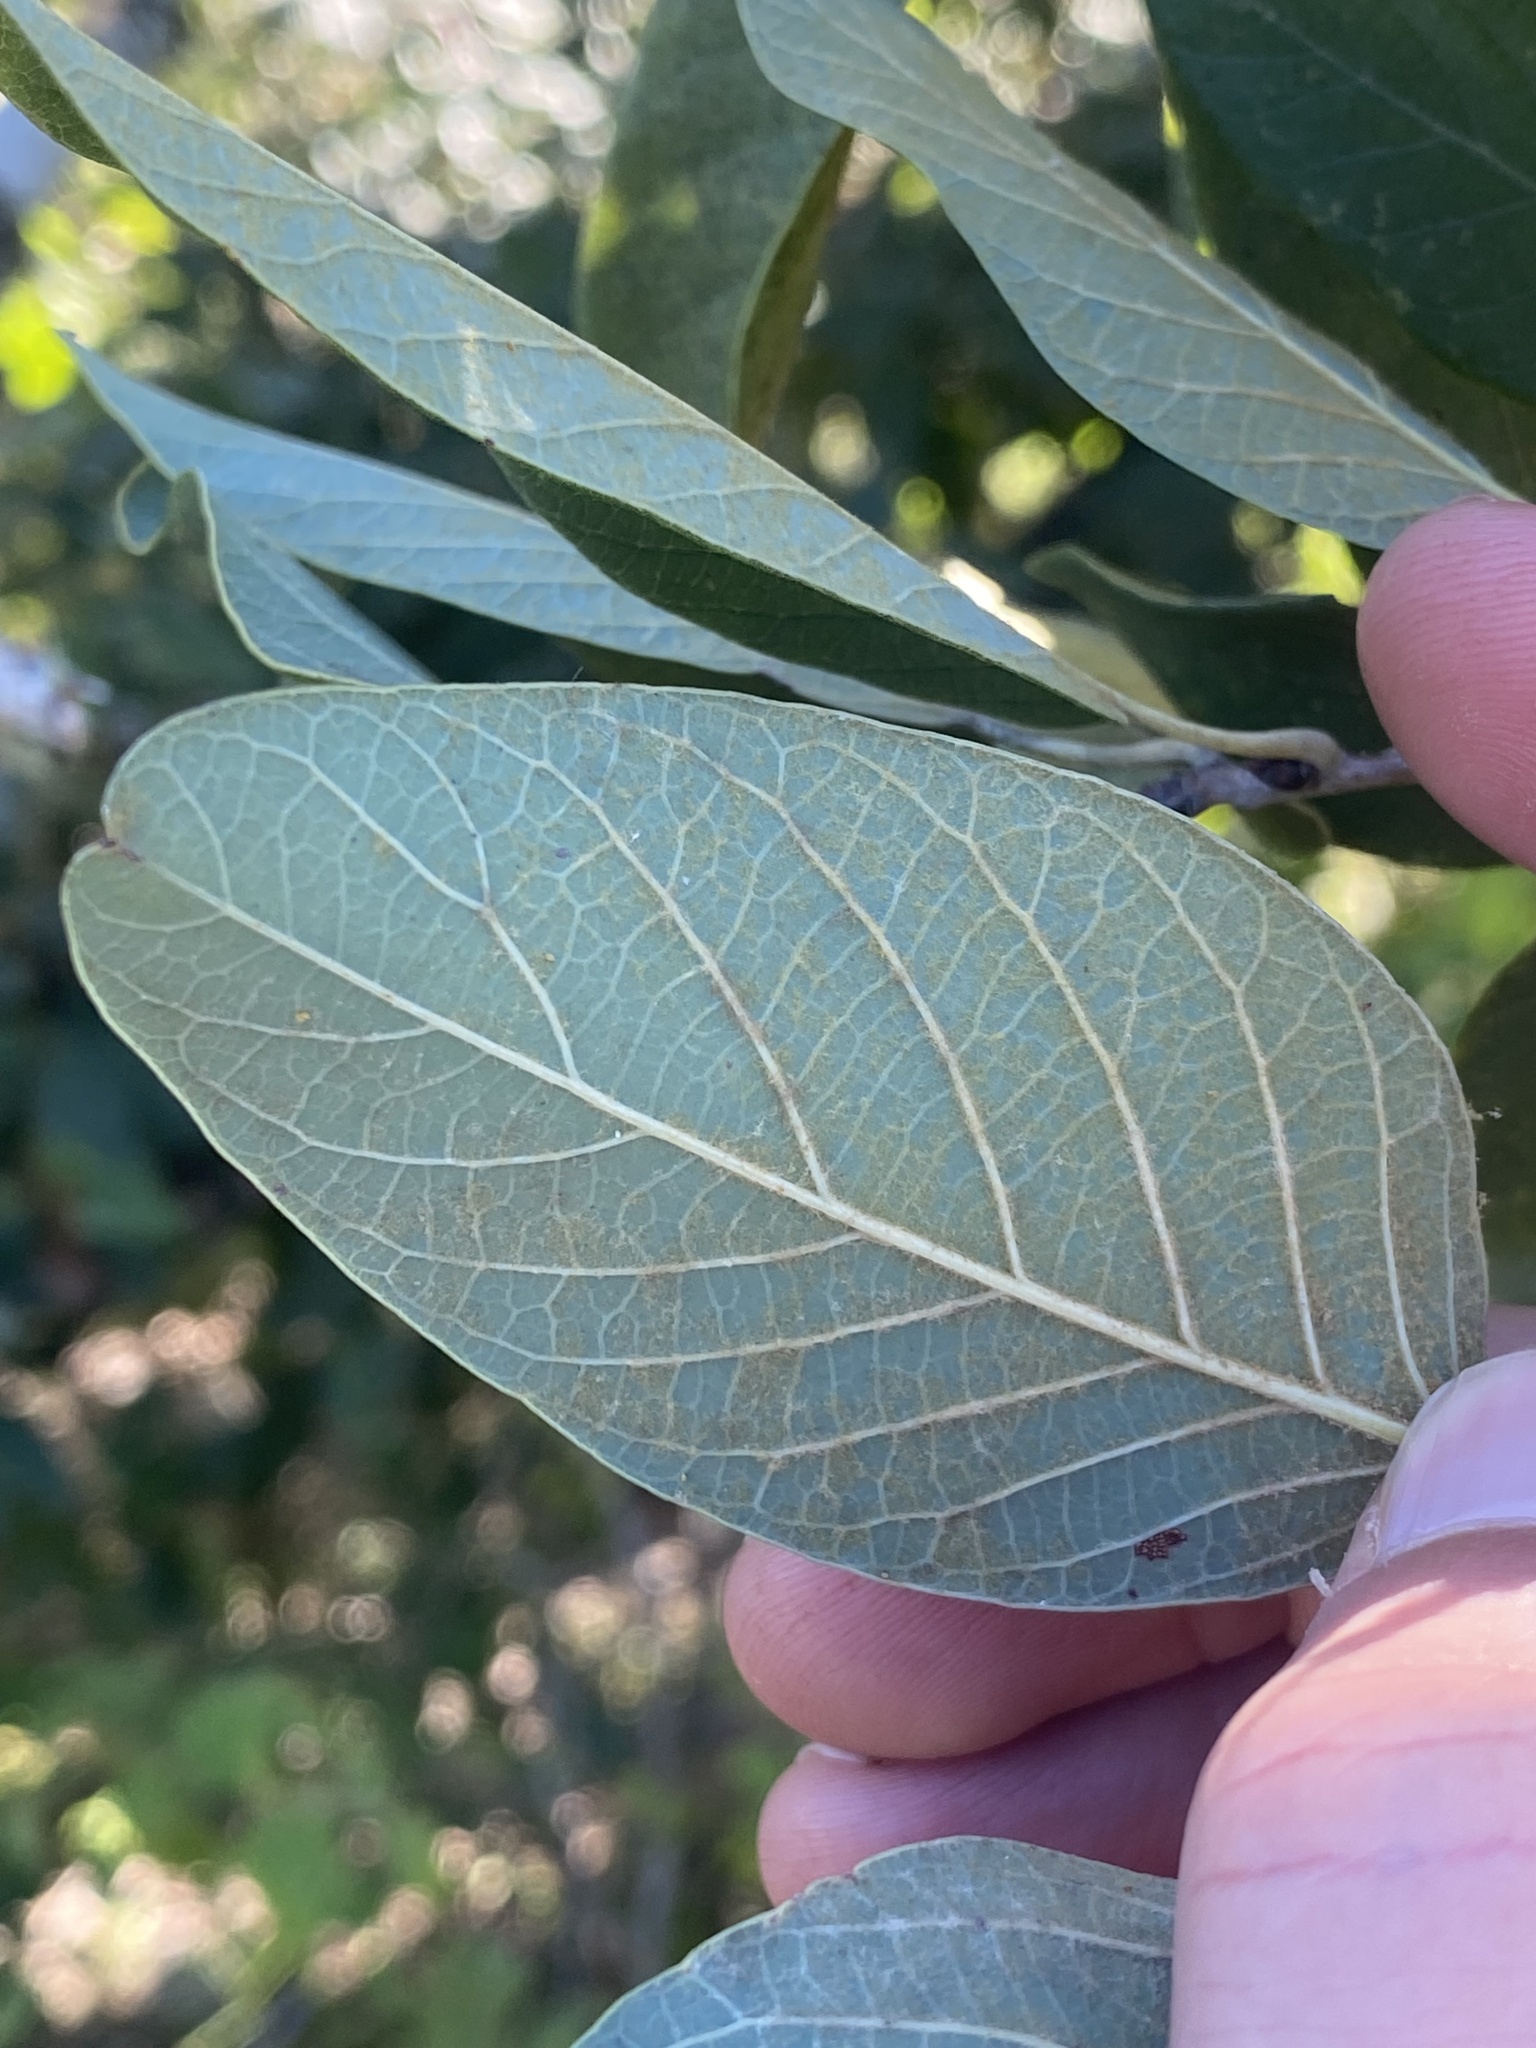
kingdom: Plantae
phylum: Tracheophyta
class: Magnoliopsida
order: Fagales
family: Fagaceae
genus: Quercus
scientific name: Quercus polymorpha
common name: Mexican white oak
